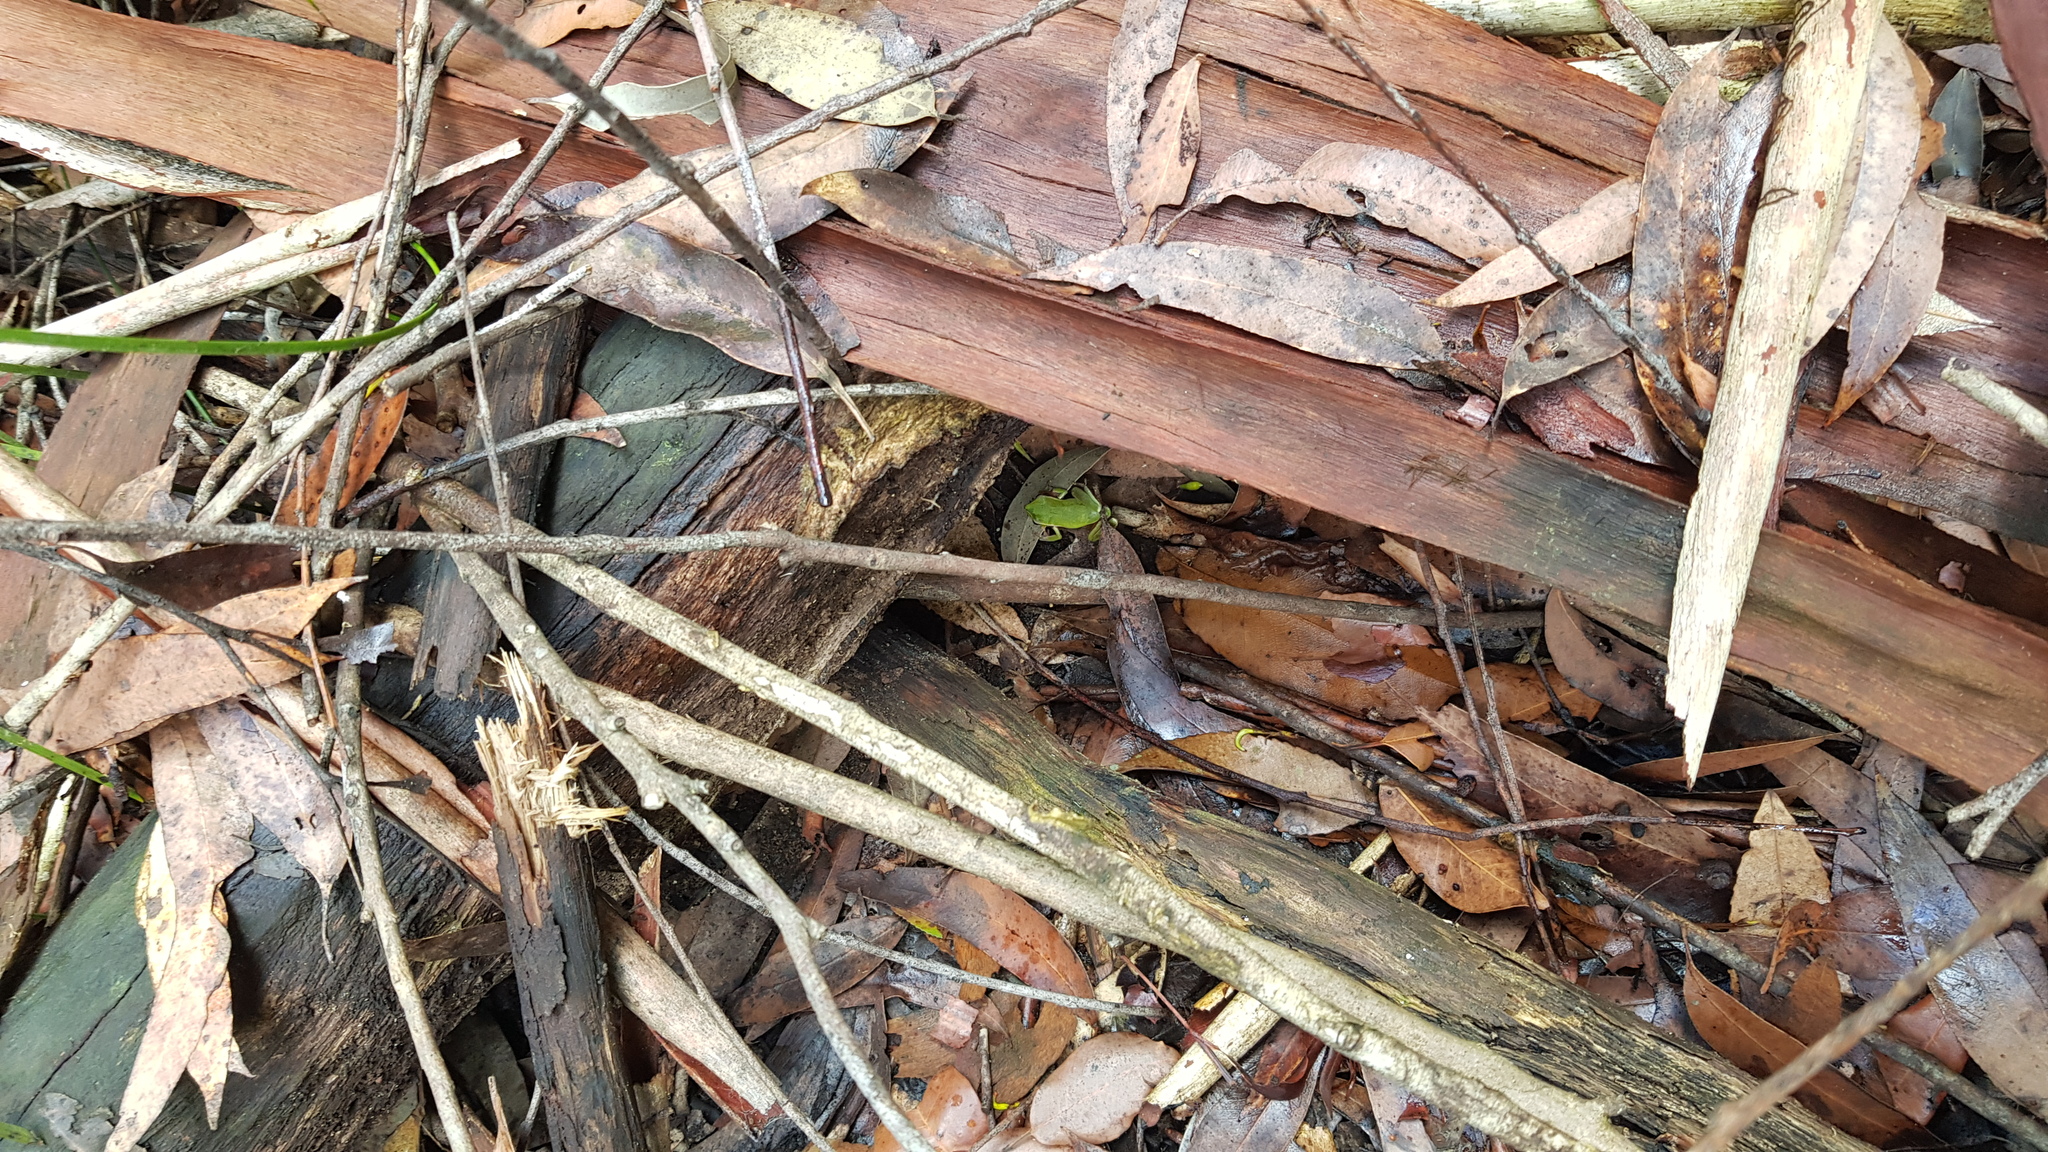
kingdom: Animalia
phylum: Chordata
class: Amphibia
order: Anura
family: Pelodryadidae
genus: Ranoidea
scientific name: Ranoidea phyllochroa
